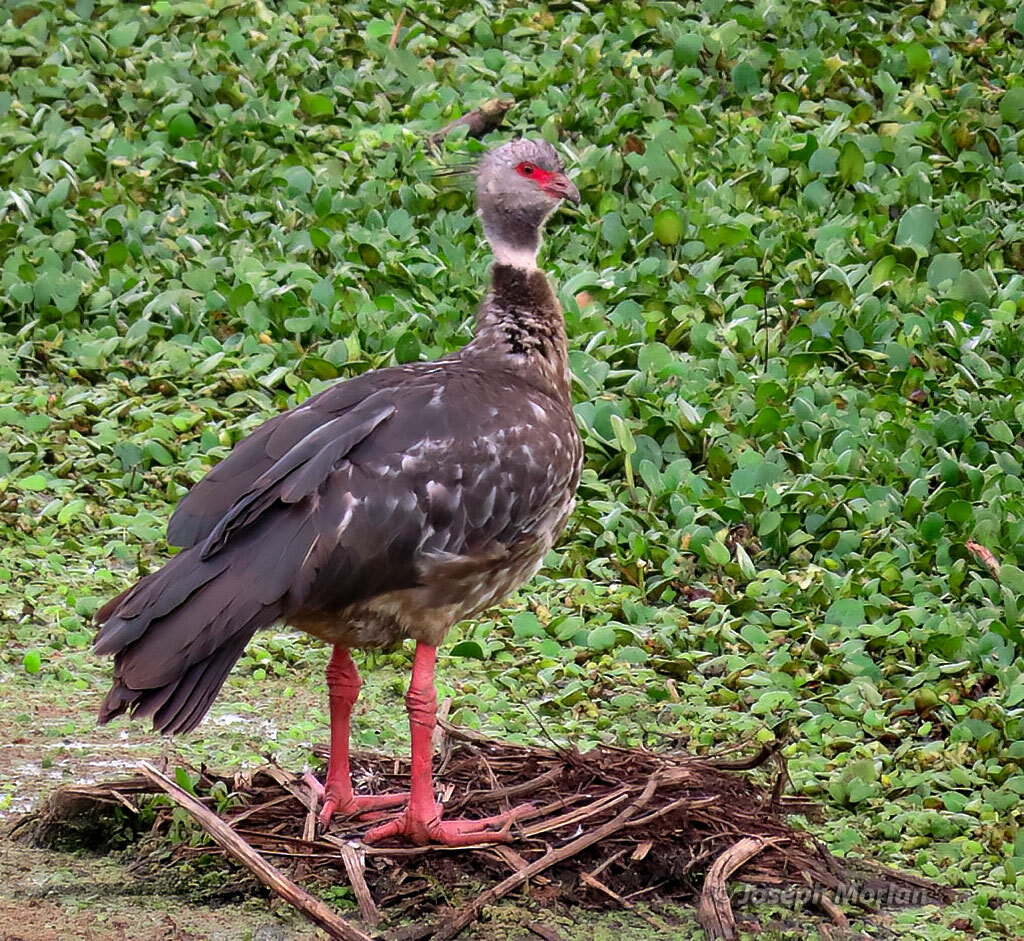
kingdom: Animalia
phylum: Chordata
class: Aves
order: Anseriformes
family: Anhimidae
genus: Chauna
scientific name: Chauna torquata
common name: Southern screamer
